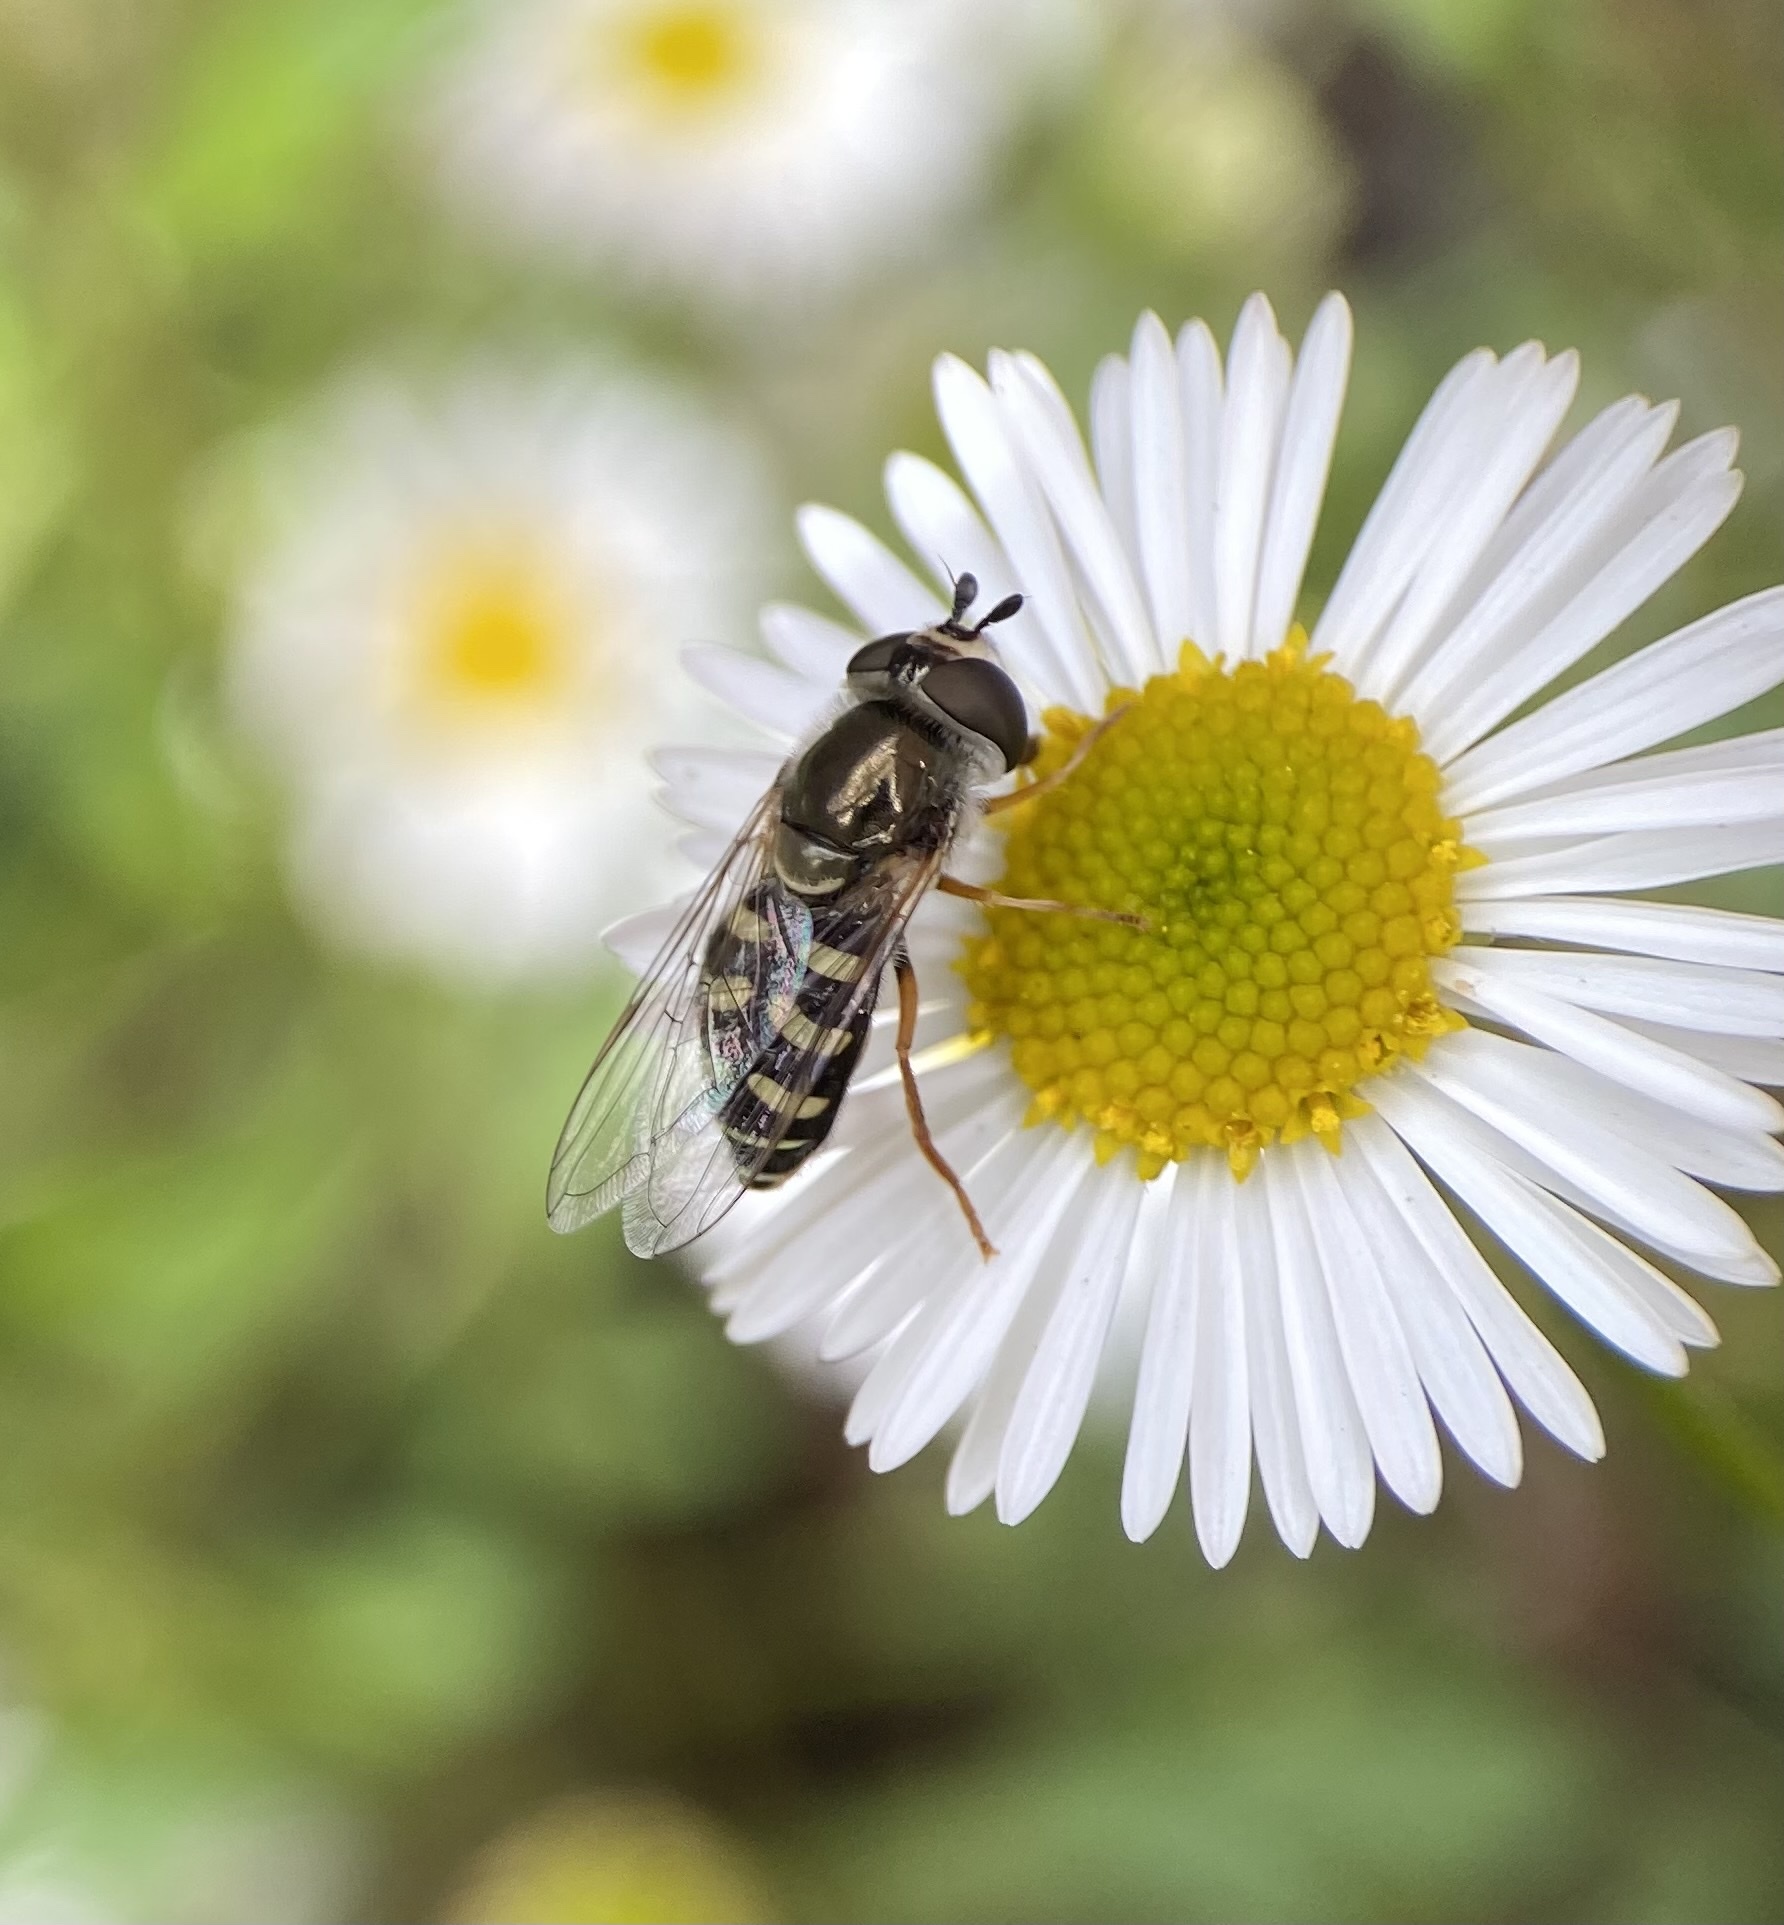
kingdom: Animalia
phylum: Arthropoda
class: Insecta
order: Diptera
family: Syrphidae
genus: Eupeodes
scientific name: Eupeodes volucris
